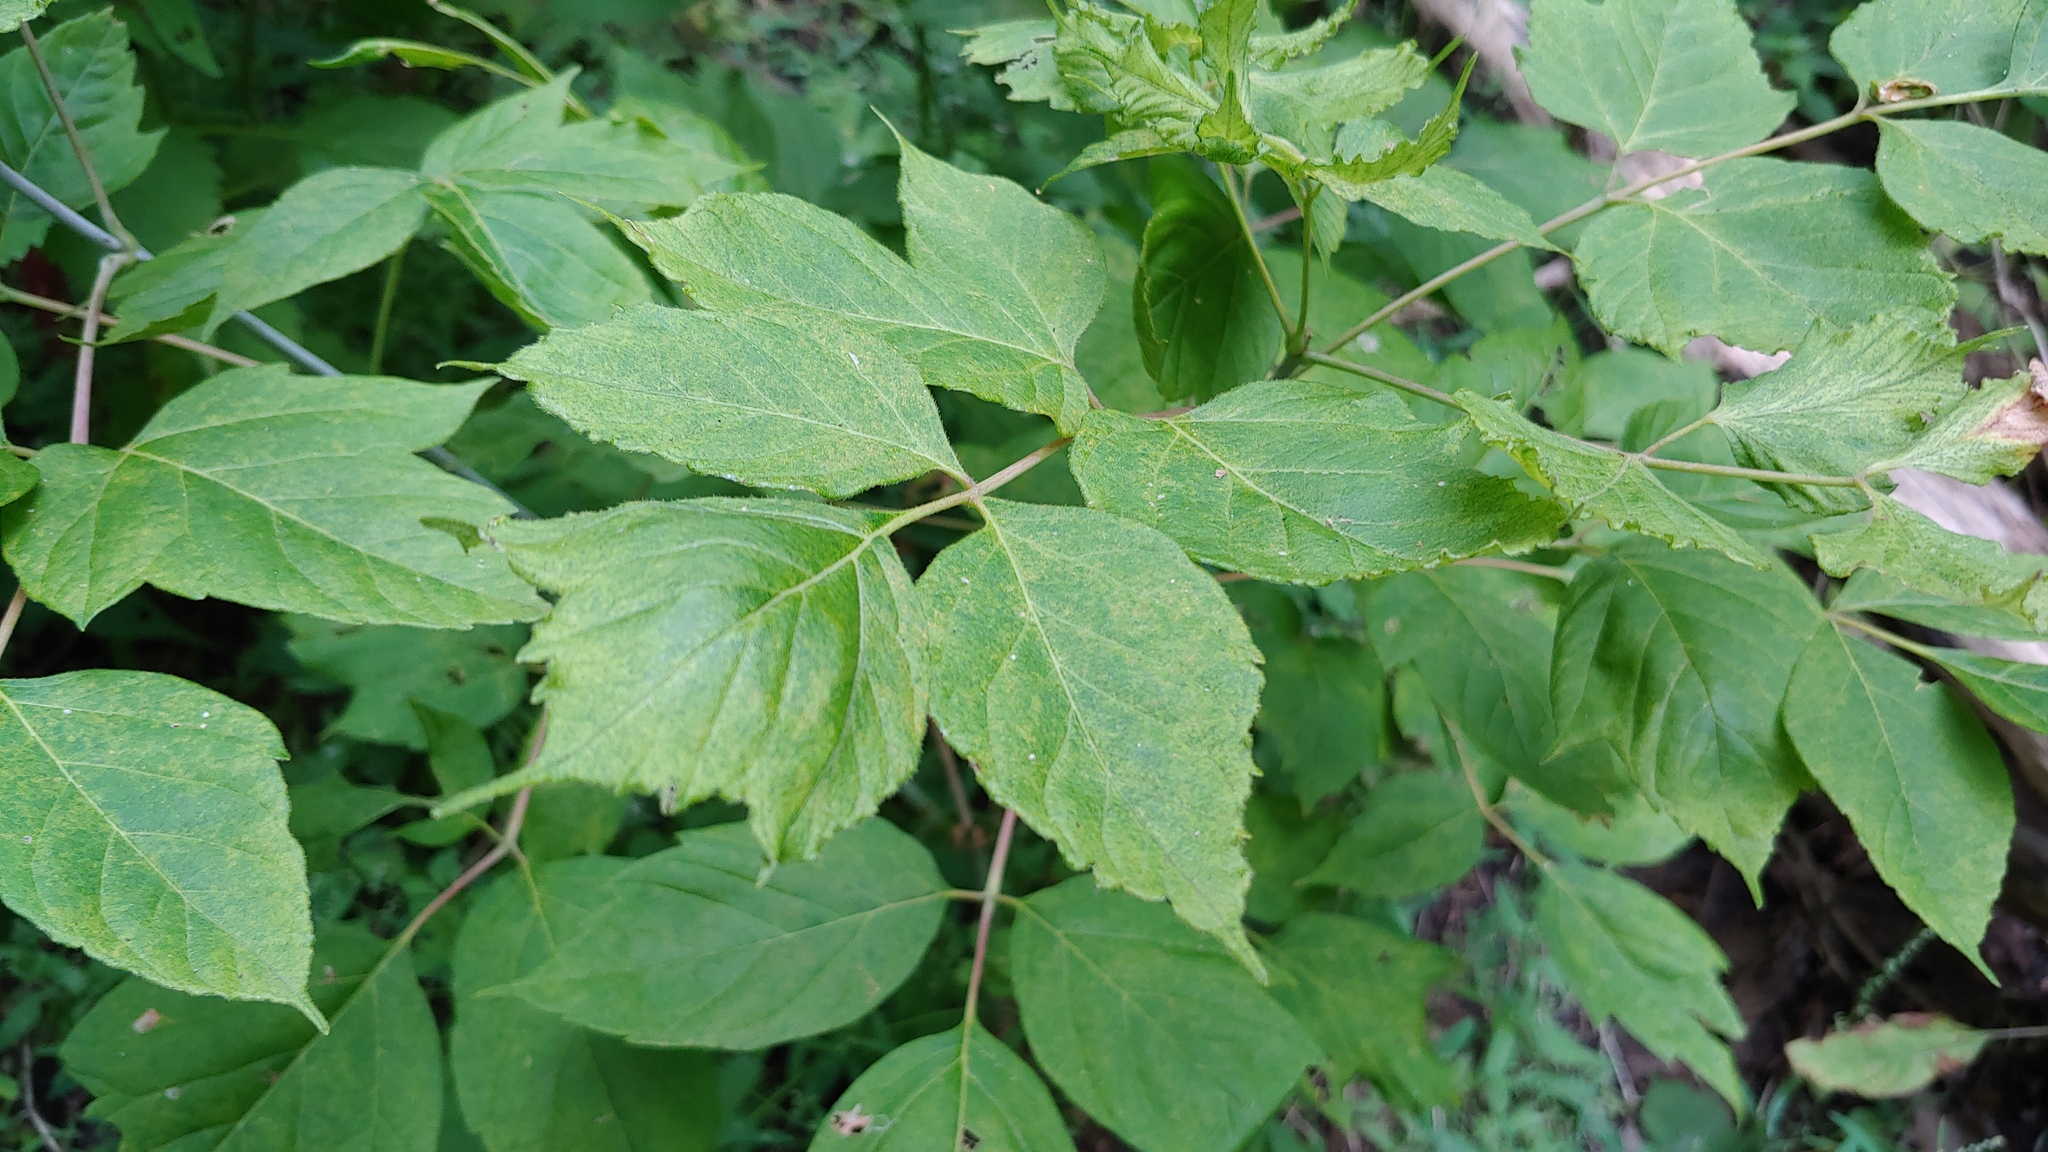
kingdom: Plantae
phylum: Tracheophyta
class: Magnoliopsida
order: Sapindales
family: Sapindaceae
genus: Acer
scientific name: Acer negundo
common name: Ashleaf maple
